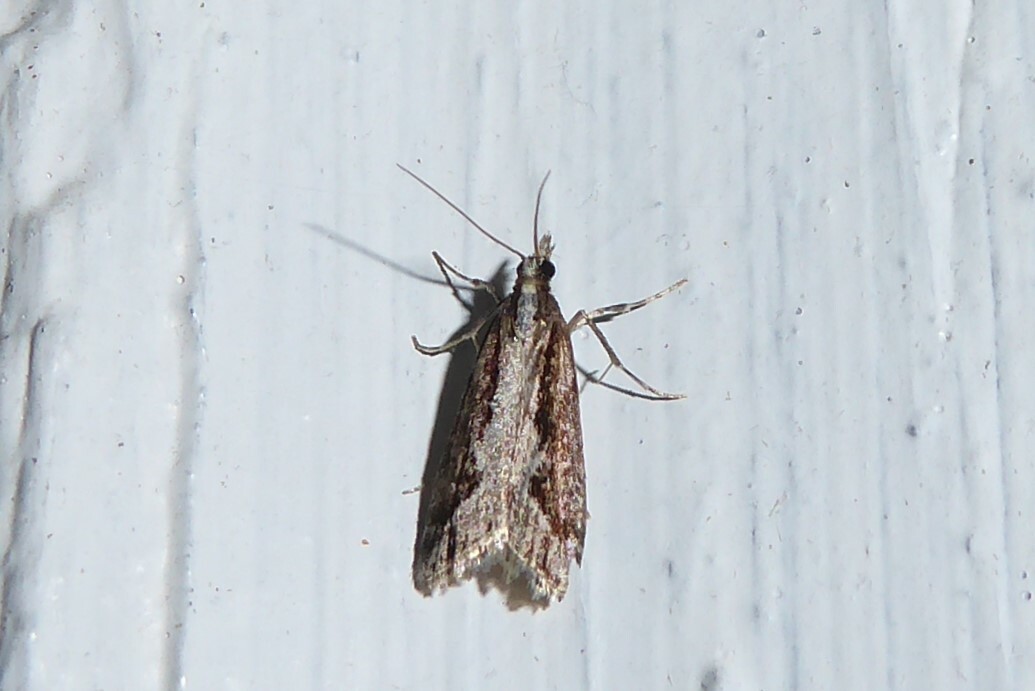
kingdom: Animalia
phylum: Arthropoda
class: Insecta
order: Lepidoptera
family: Crambidae
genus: Eudonia
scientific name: Eudonia steropaea
